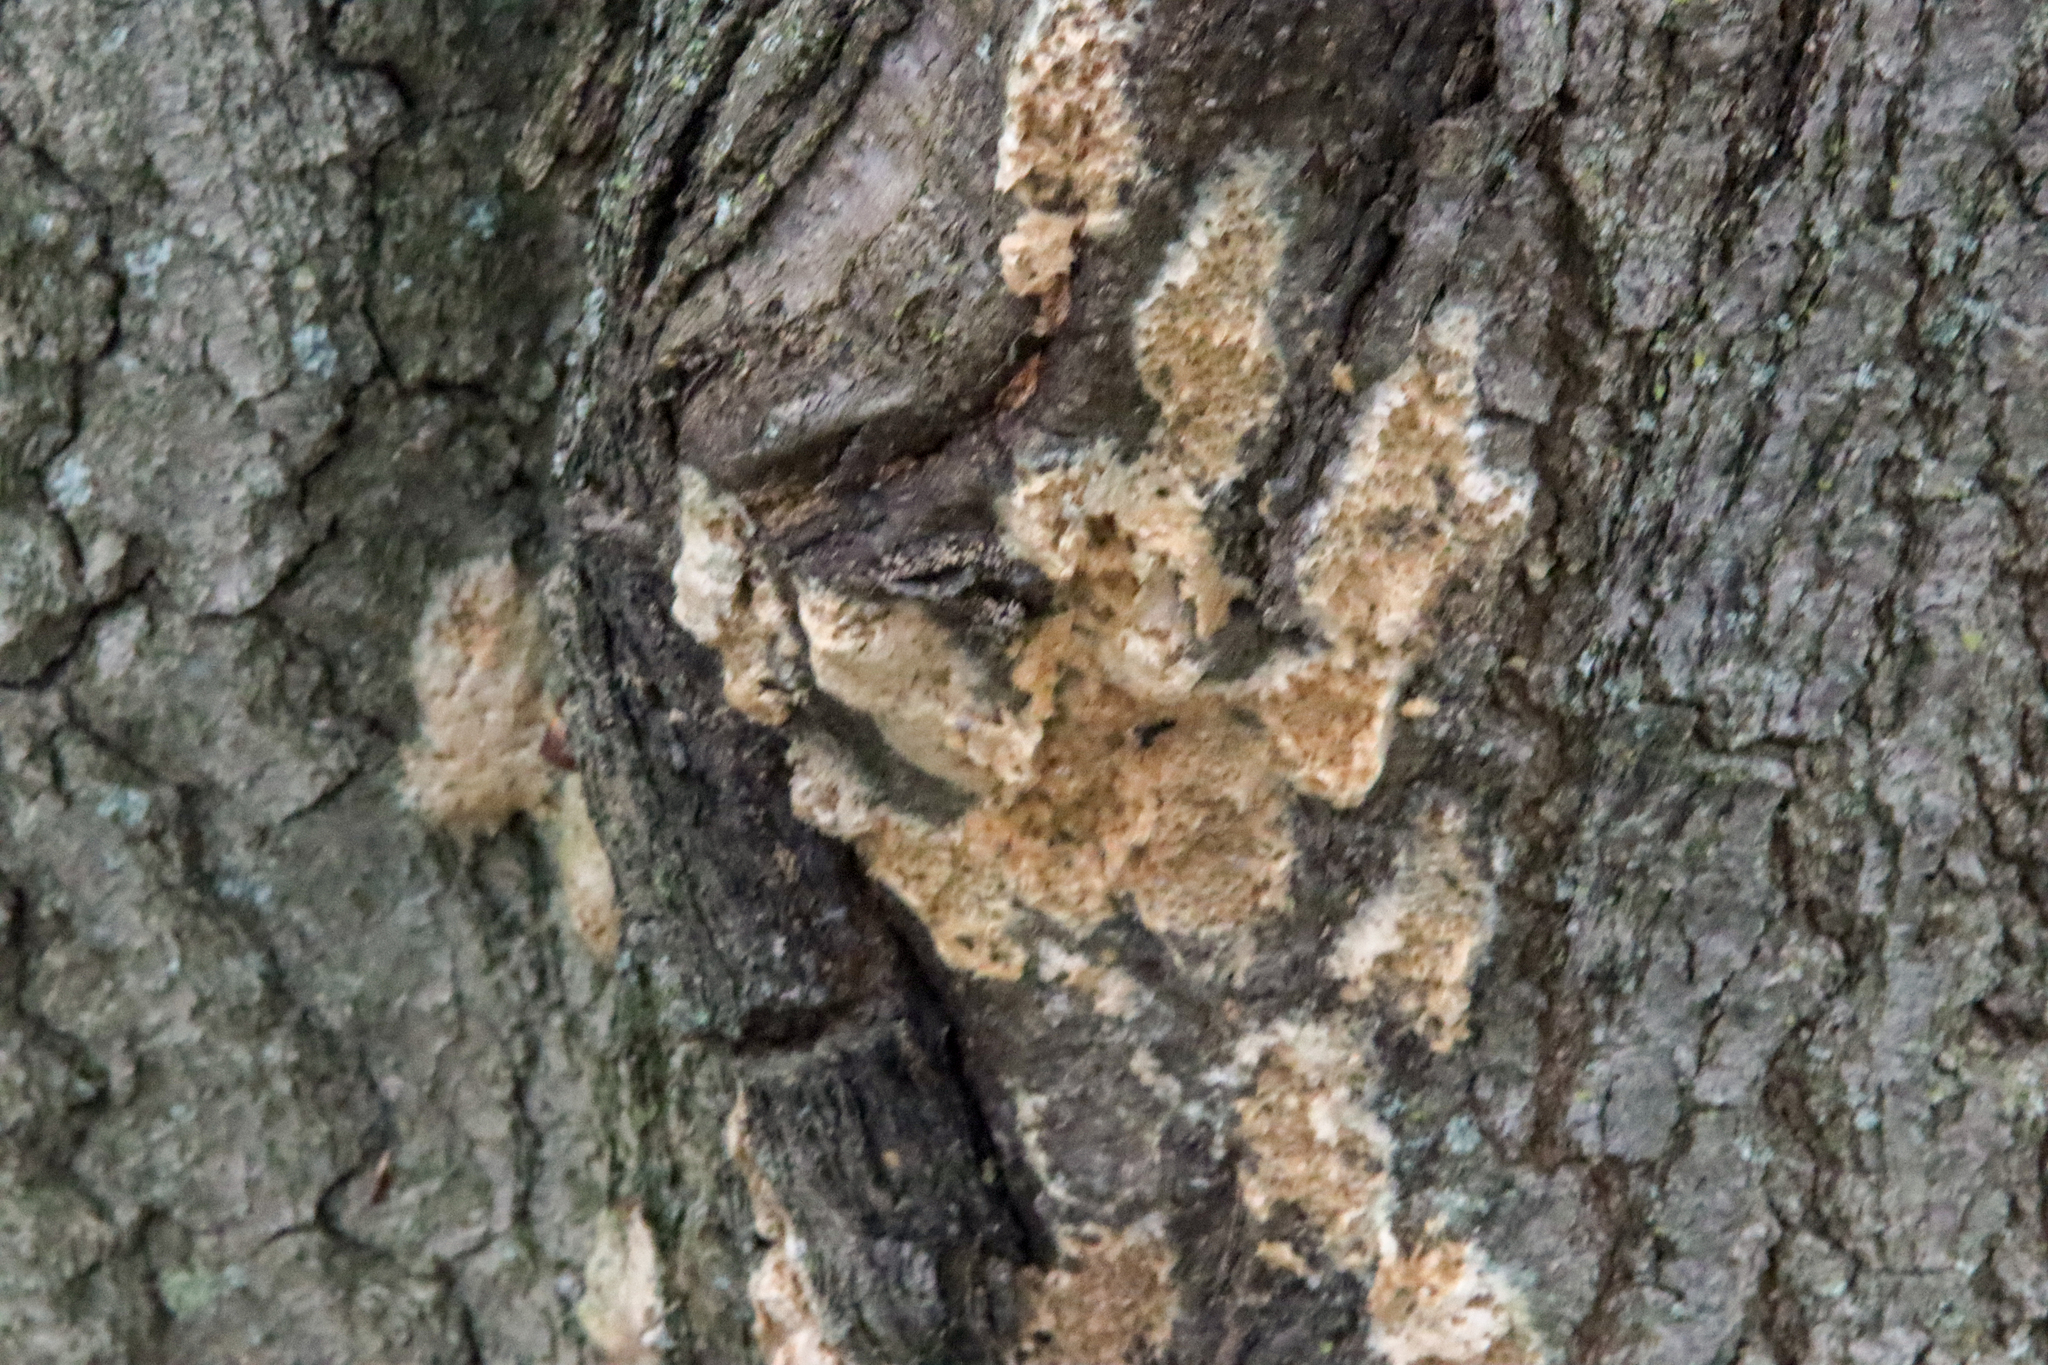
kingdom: Animalia
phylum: Arthropoda
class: Insecta
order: Lepidoptera
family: Erebidae
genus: Lymantria
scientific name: Lymantria dispar
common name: Gypsy moth
